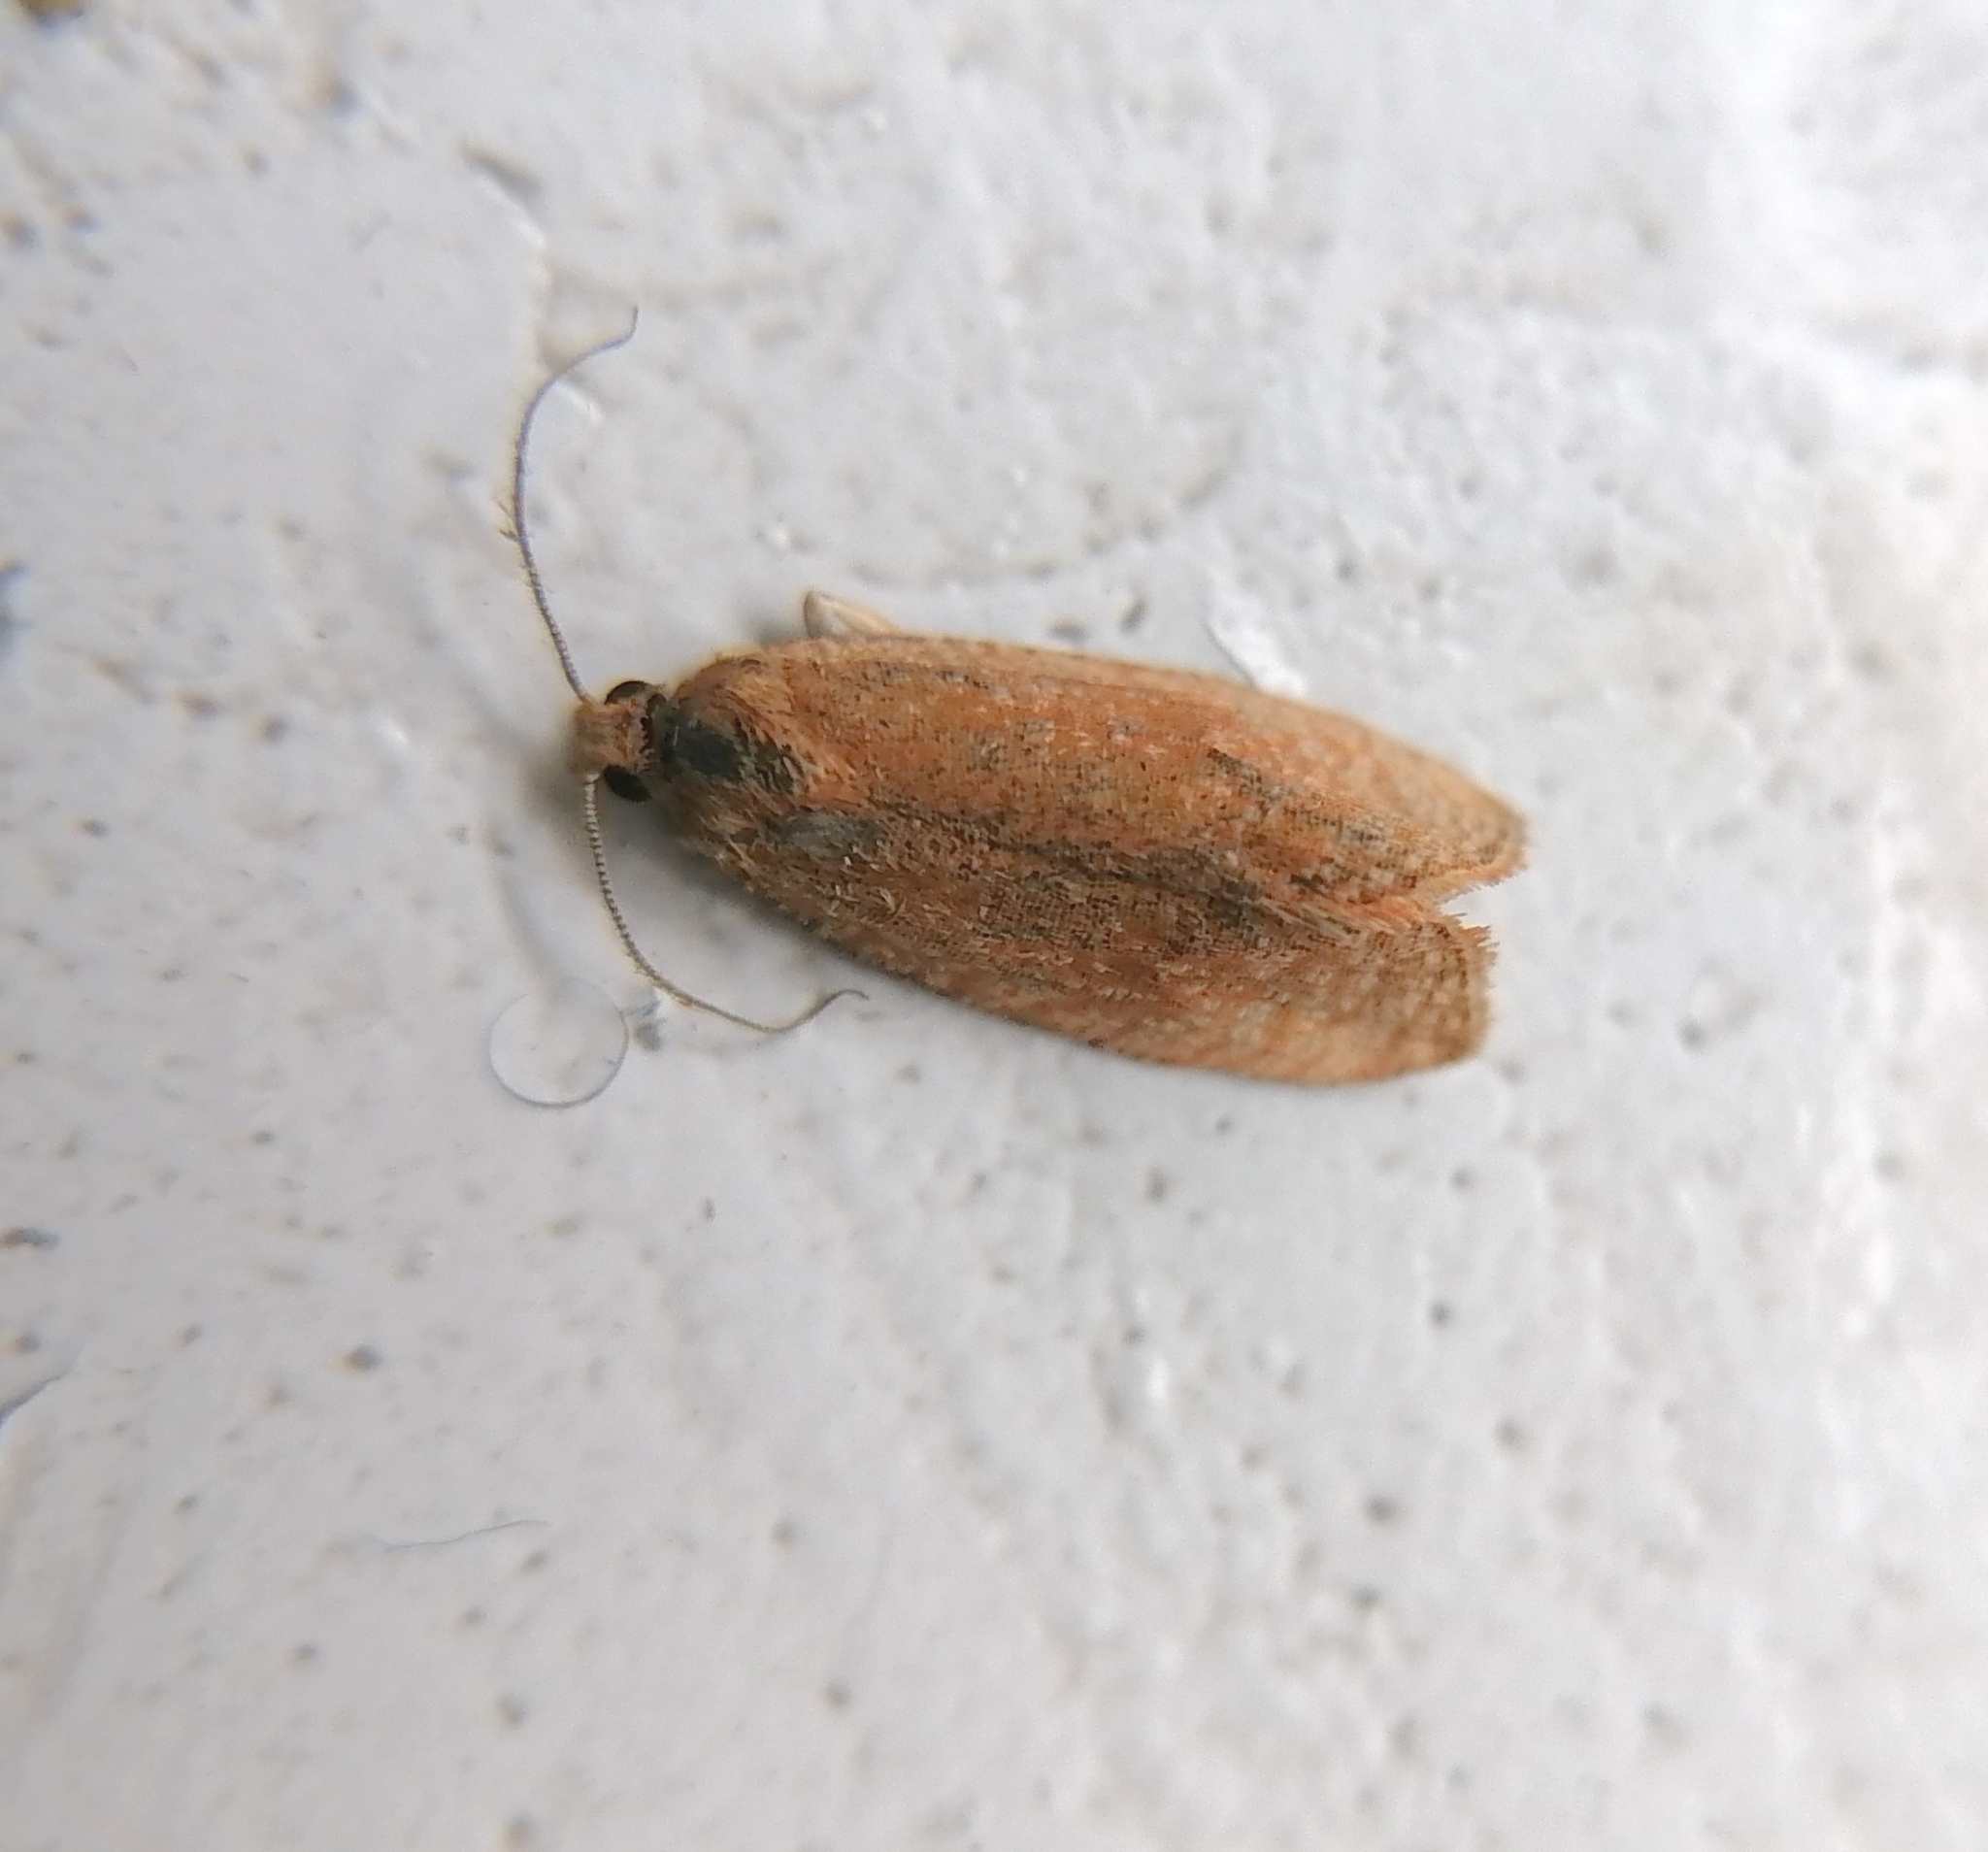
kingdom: Animalia
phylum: Arthropoda
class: Insecta
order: Lepidoptera
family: Tortricidae
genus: Celypha
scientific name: Celypha rufana
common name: Lakes marble
